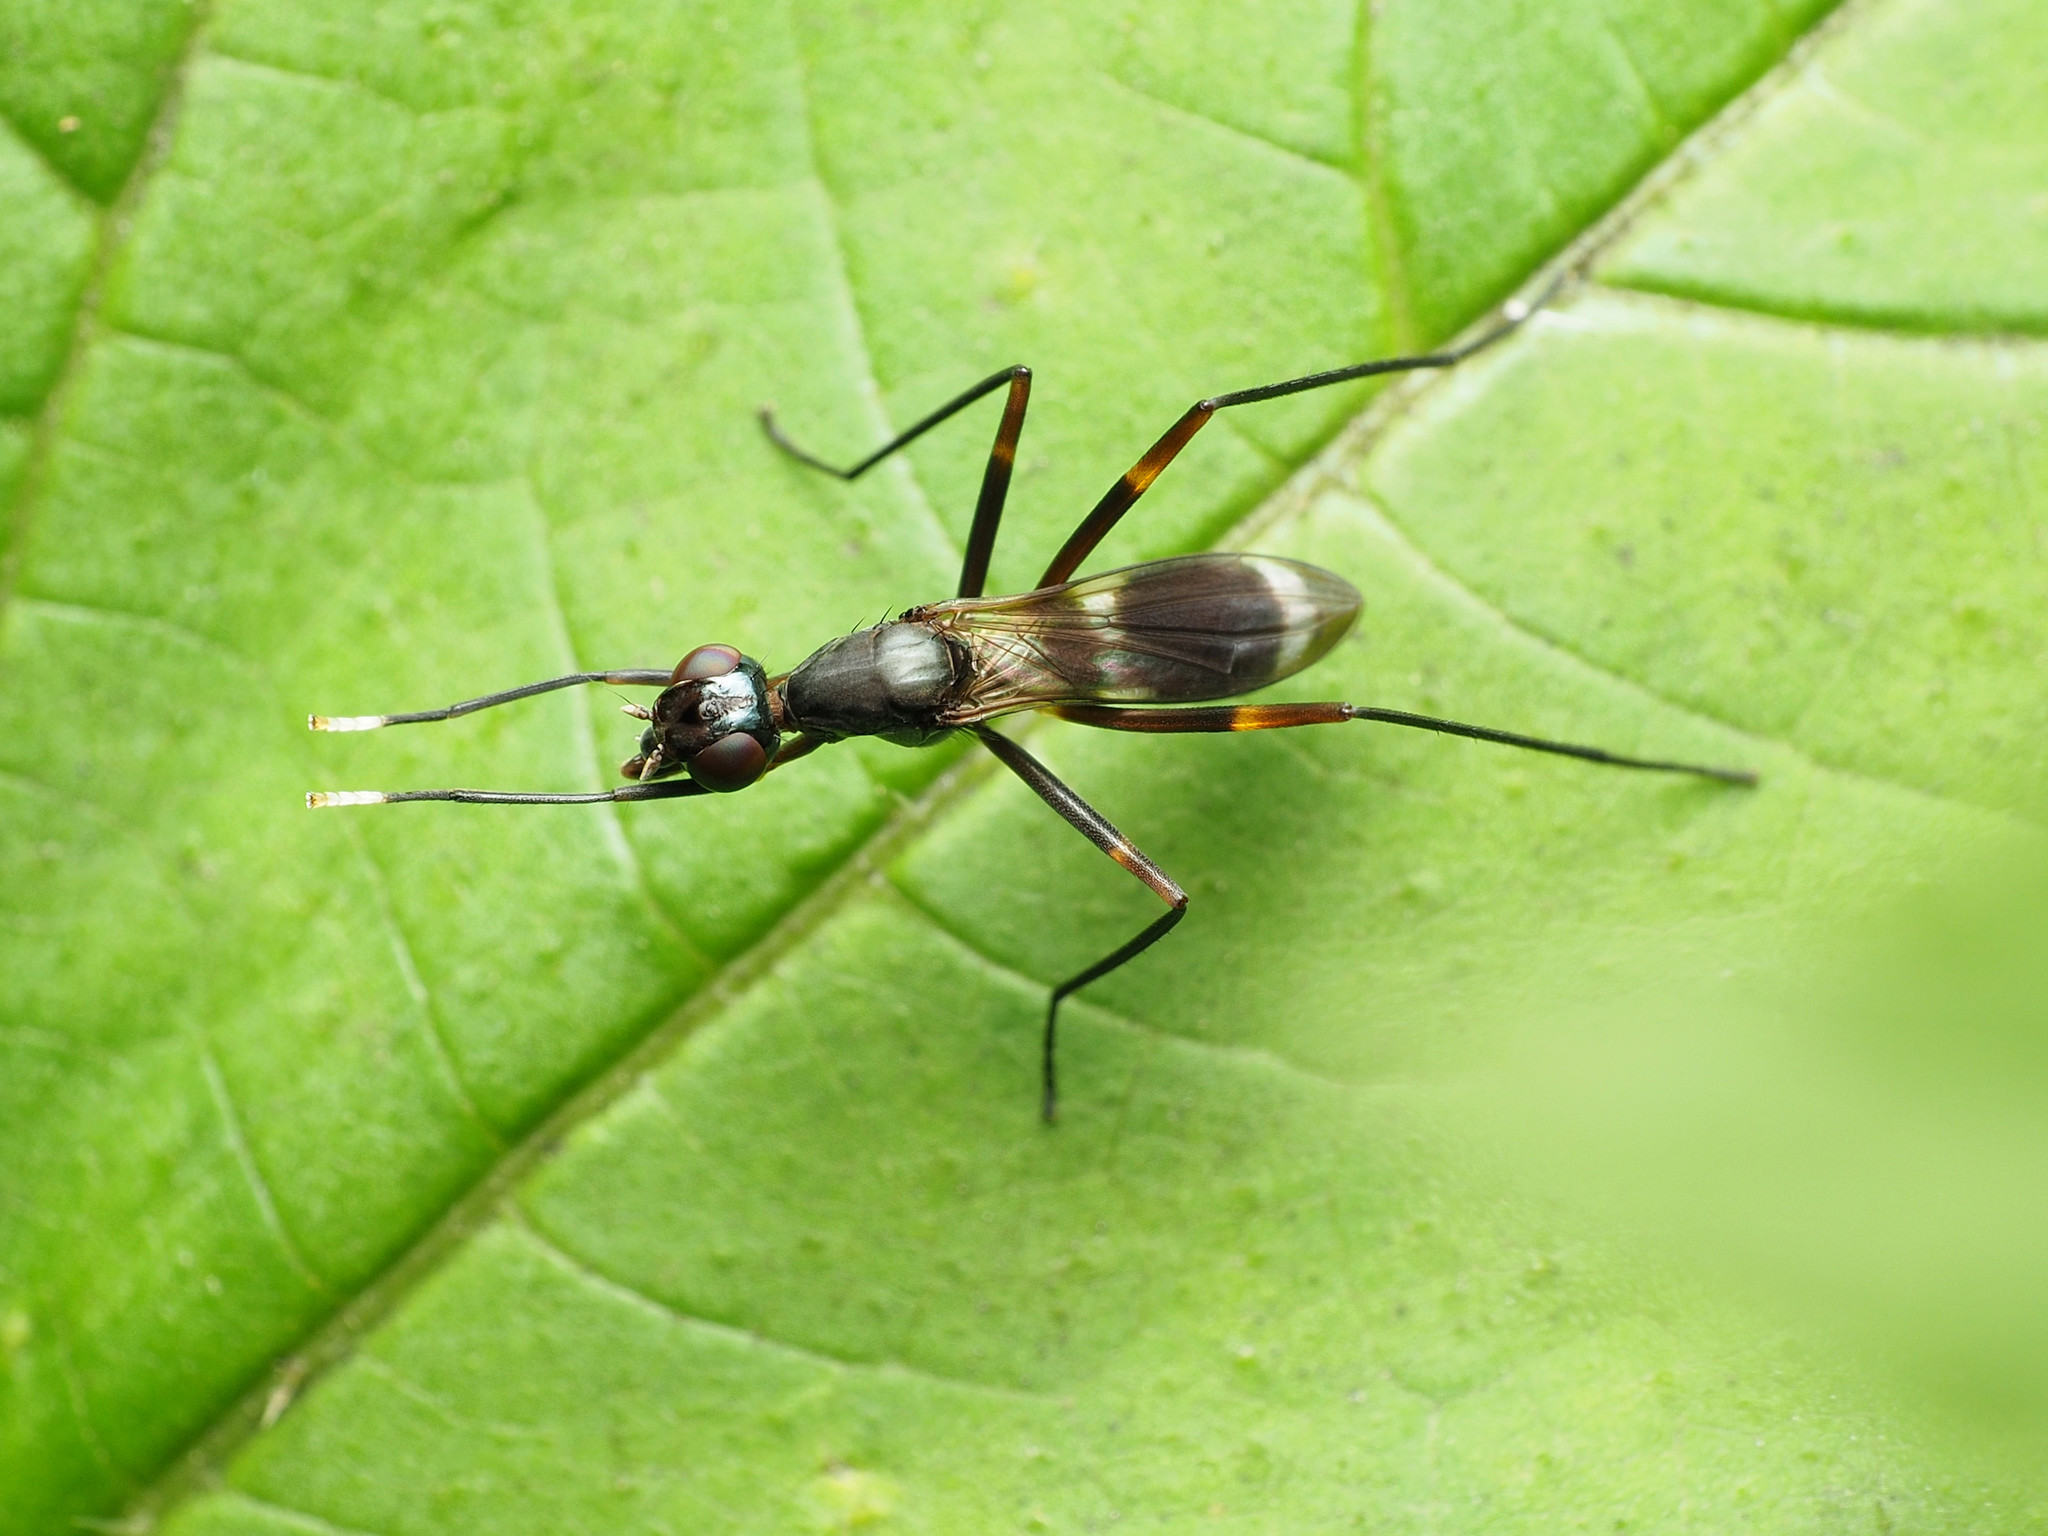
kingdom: Animalia
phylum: Arthropoda
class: Insecta
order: Diptera
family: Micropezidae
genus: Taeniaptera
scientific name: Taeniaptera trivittata
